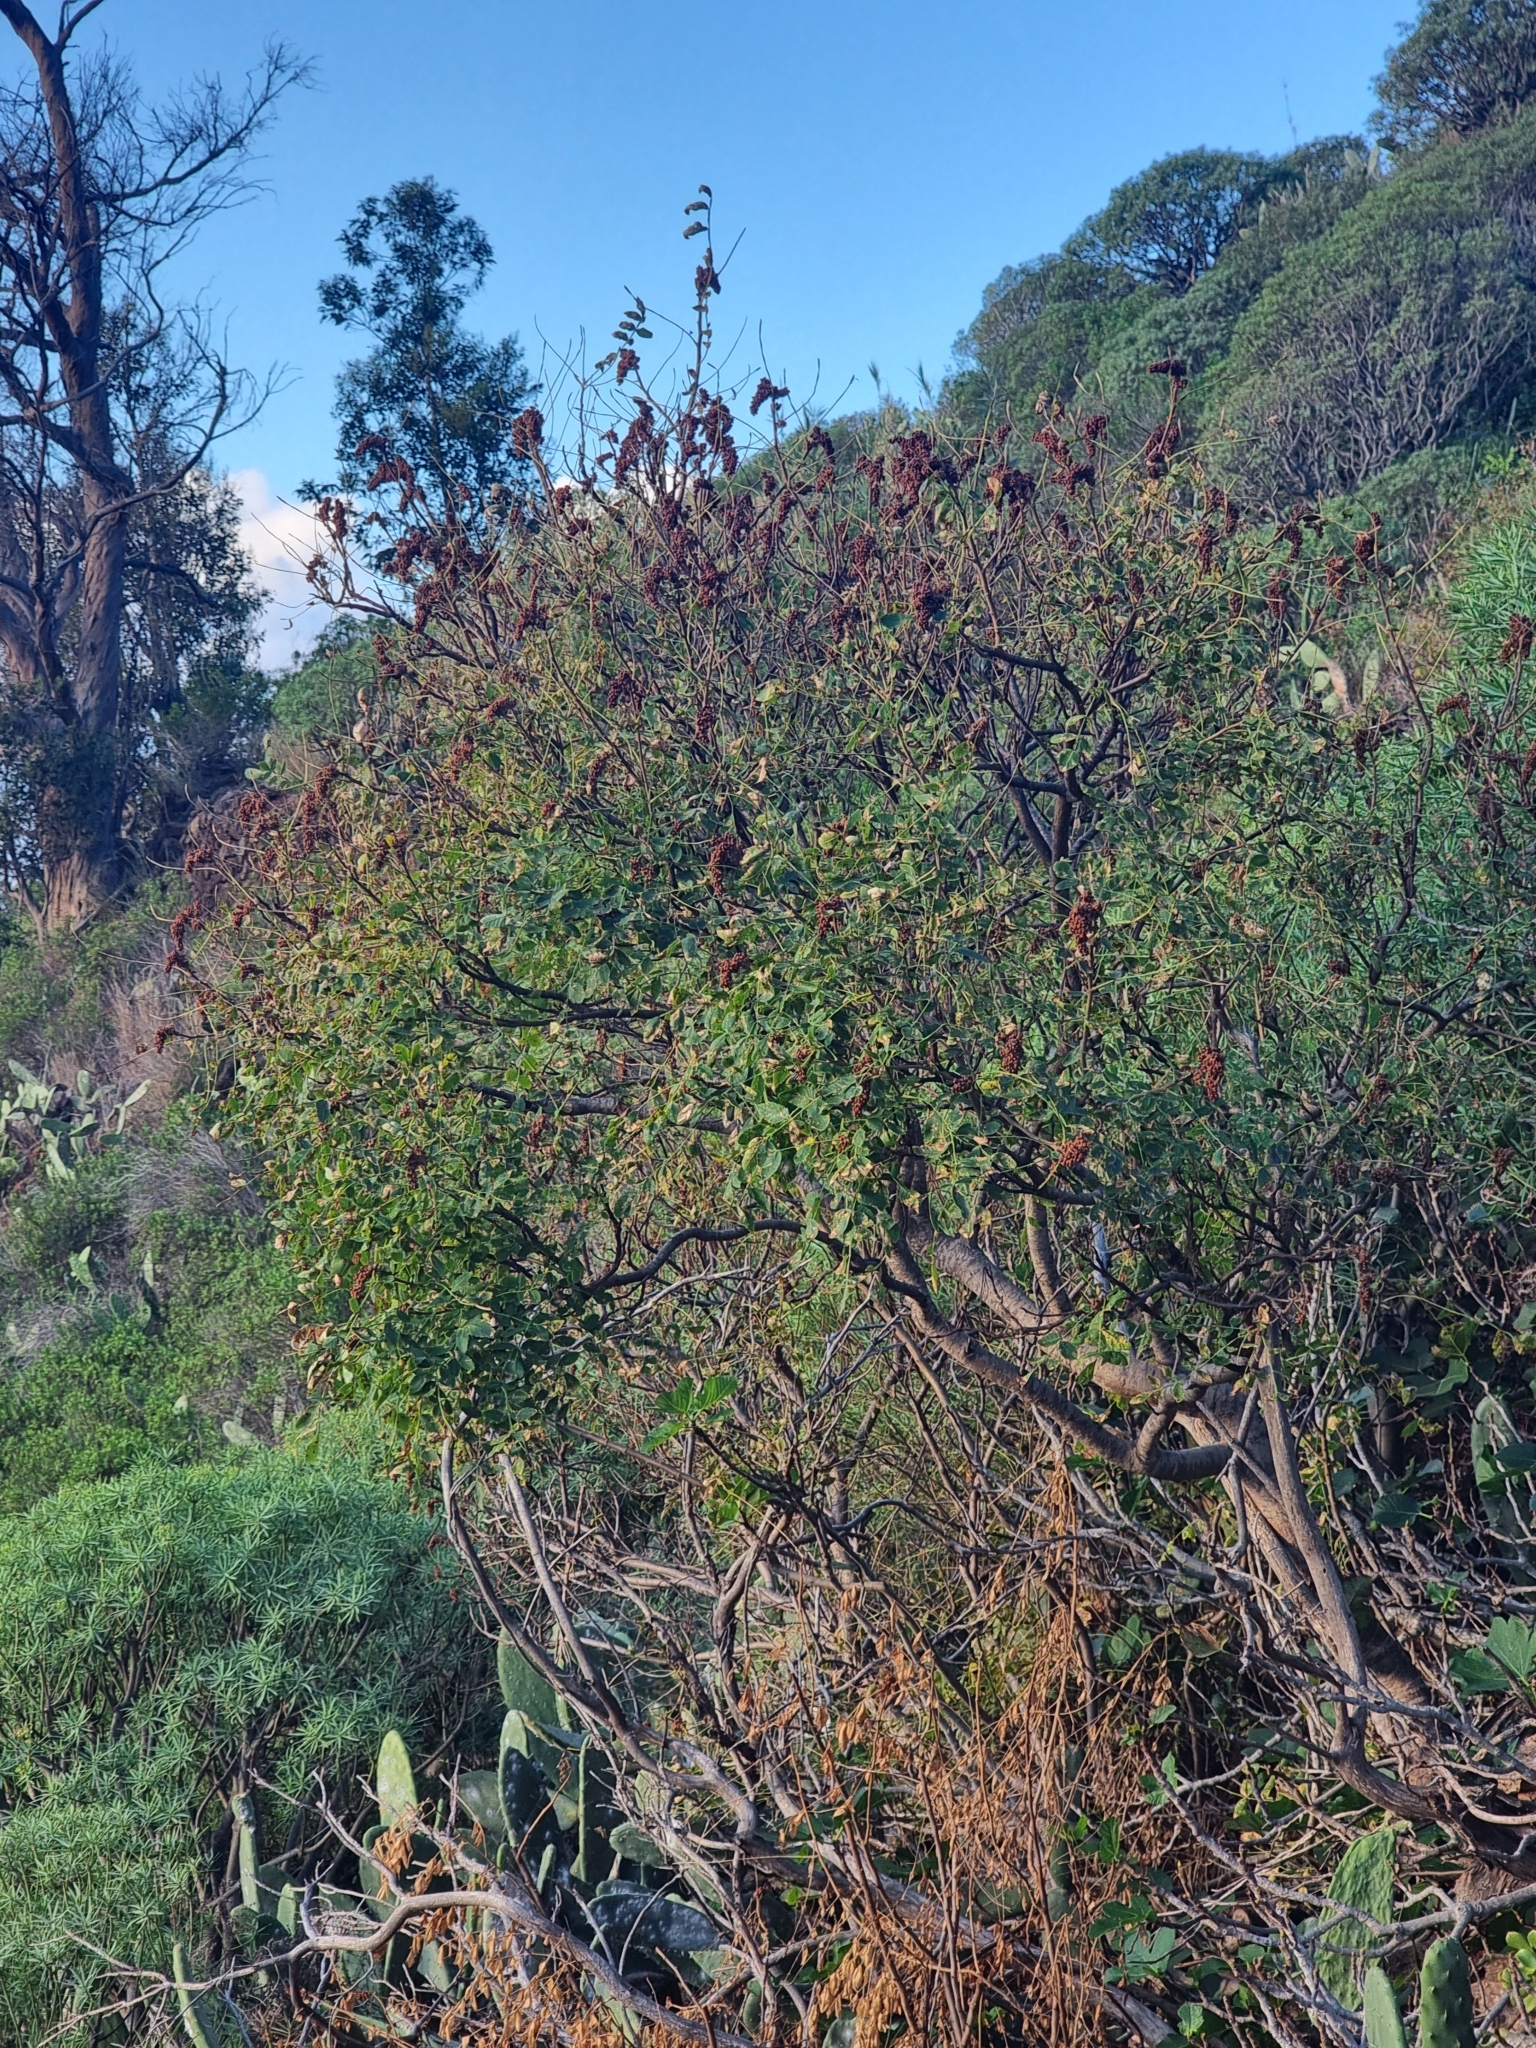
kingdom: Plantae
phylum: Tracheophyta
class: Magnoliopsida
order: Sapindales
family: Anacardiaceae
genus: Rhus
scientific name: Rhus coriaria
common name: Tanner's sumach
